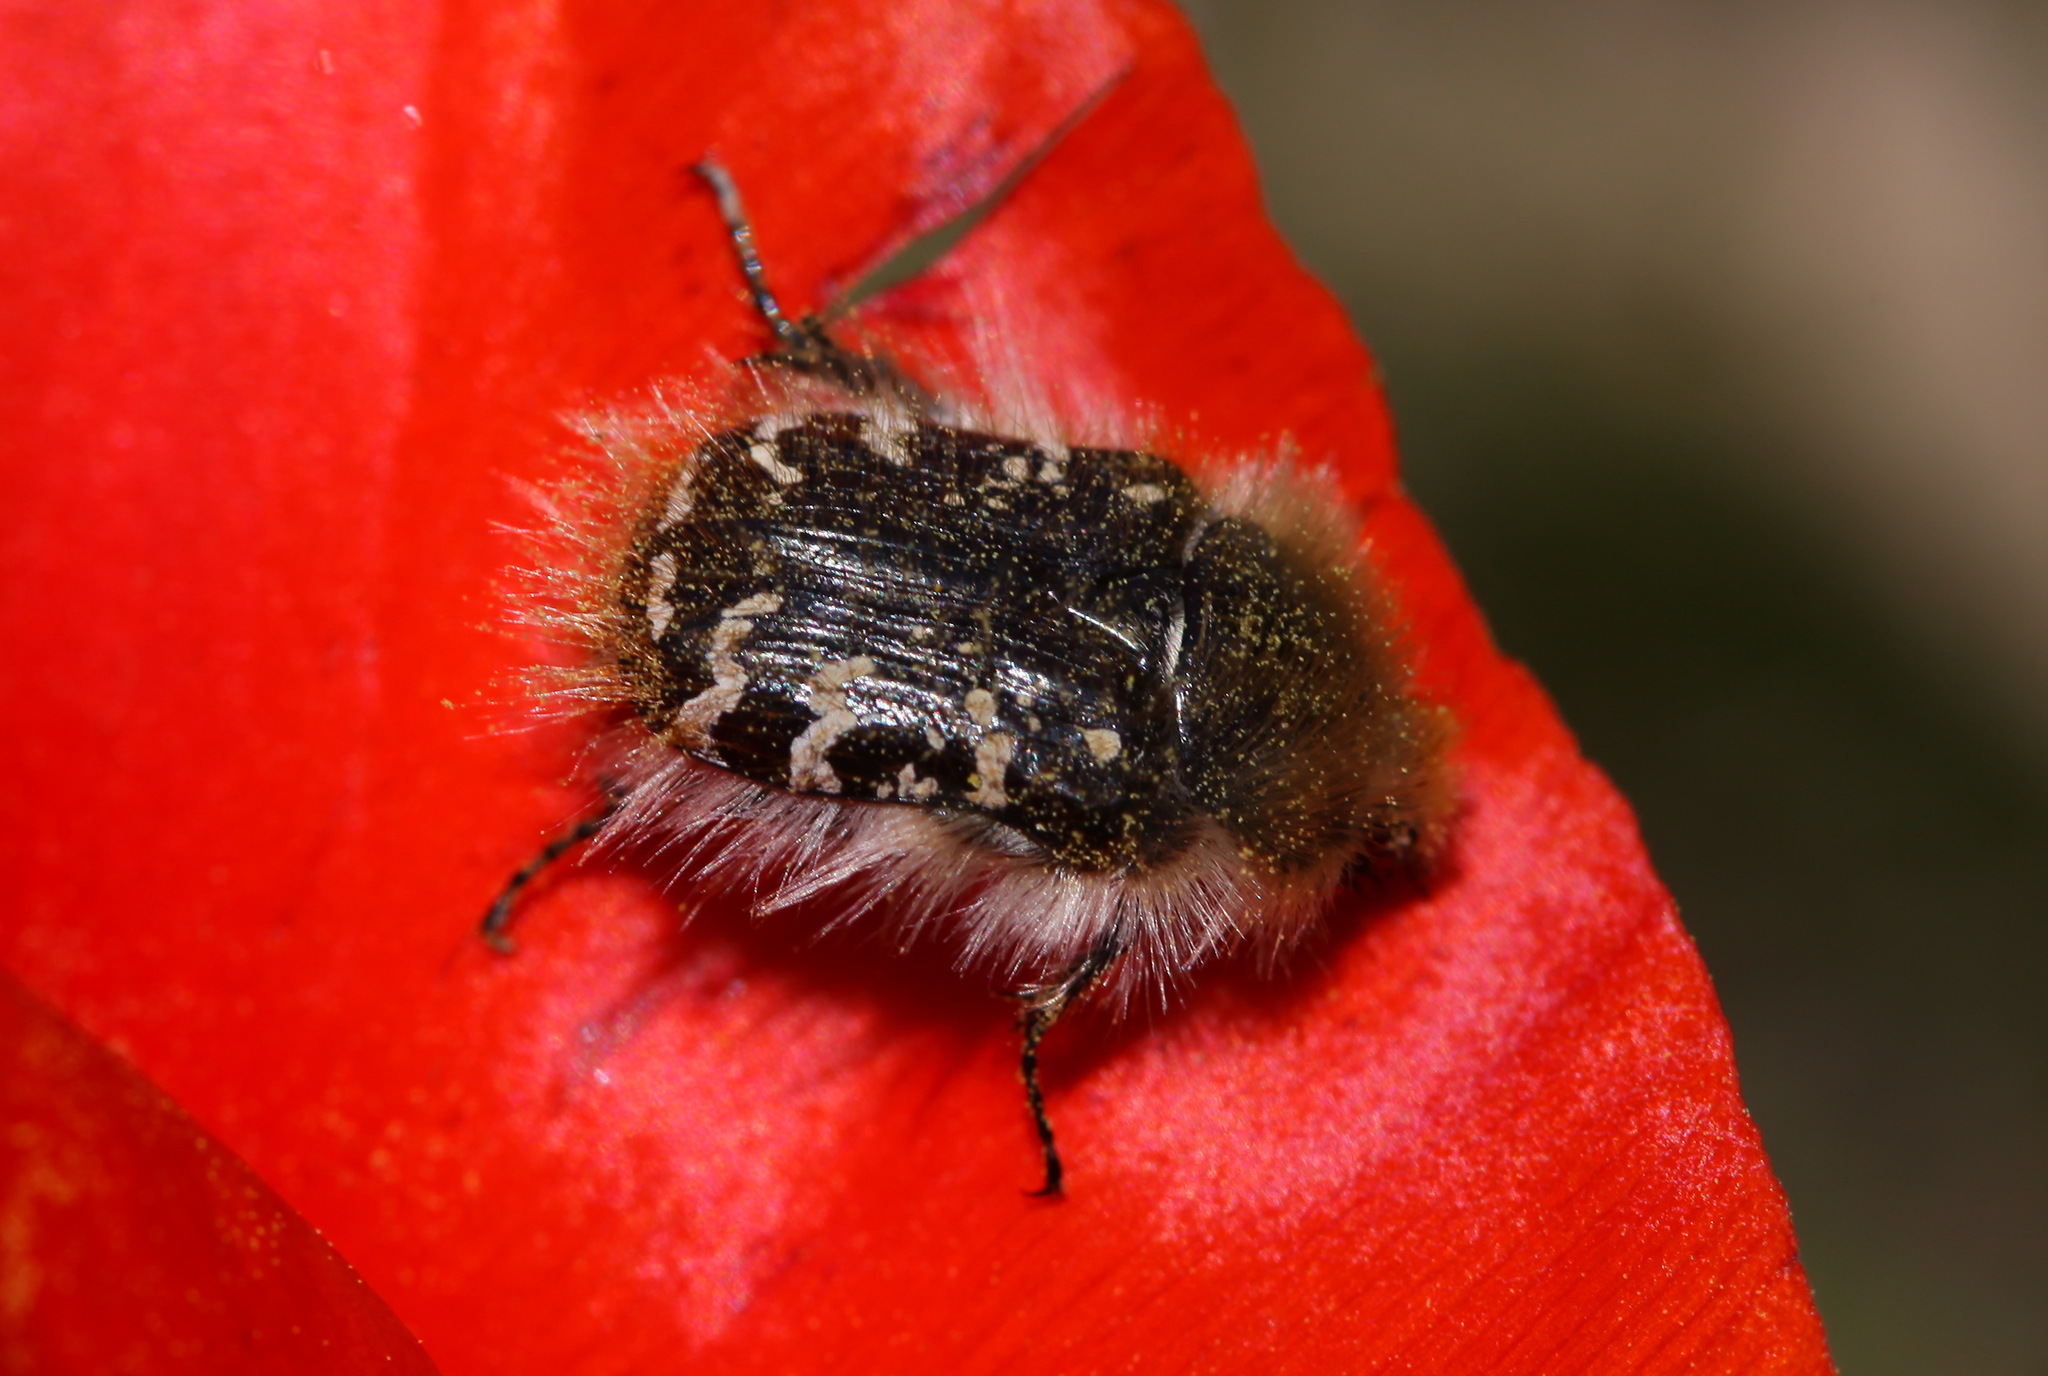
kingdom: Animalia
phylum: Arthropoda
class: Insecta
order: Coleoptera
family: Scarabaeidae
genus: Tropinota
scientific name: Tropinota hirta
